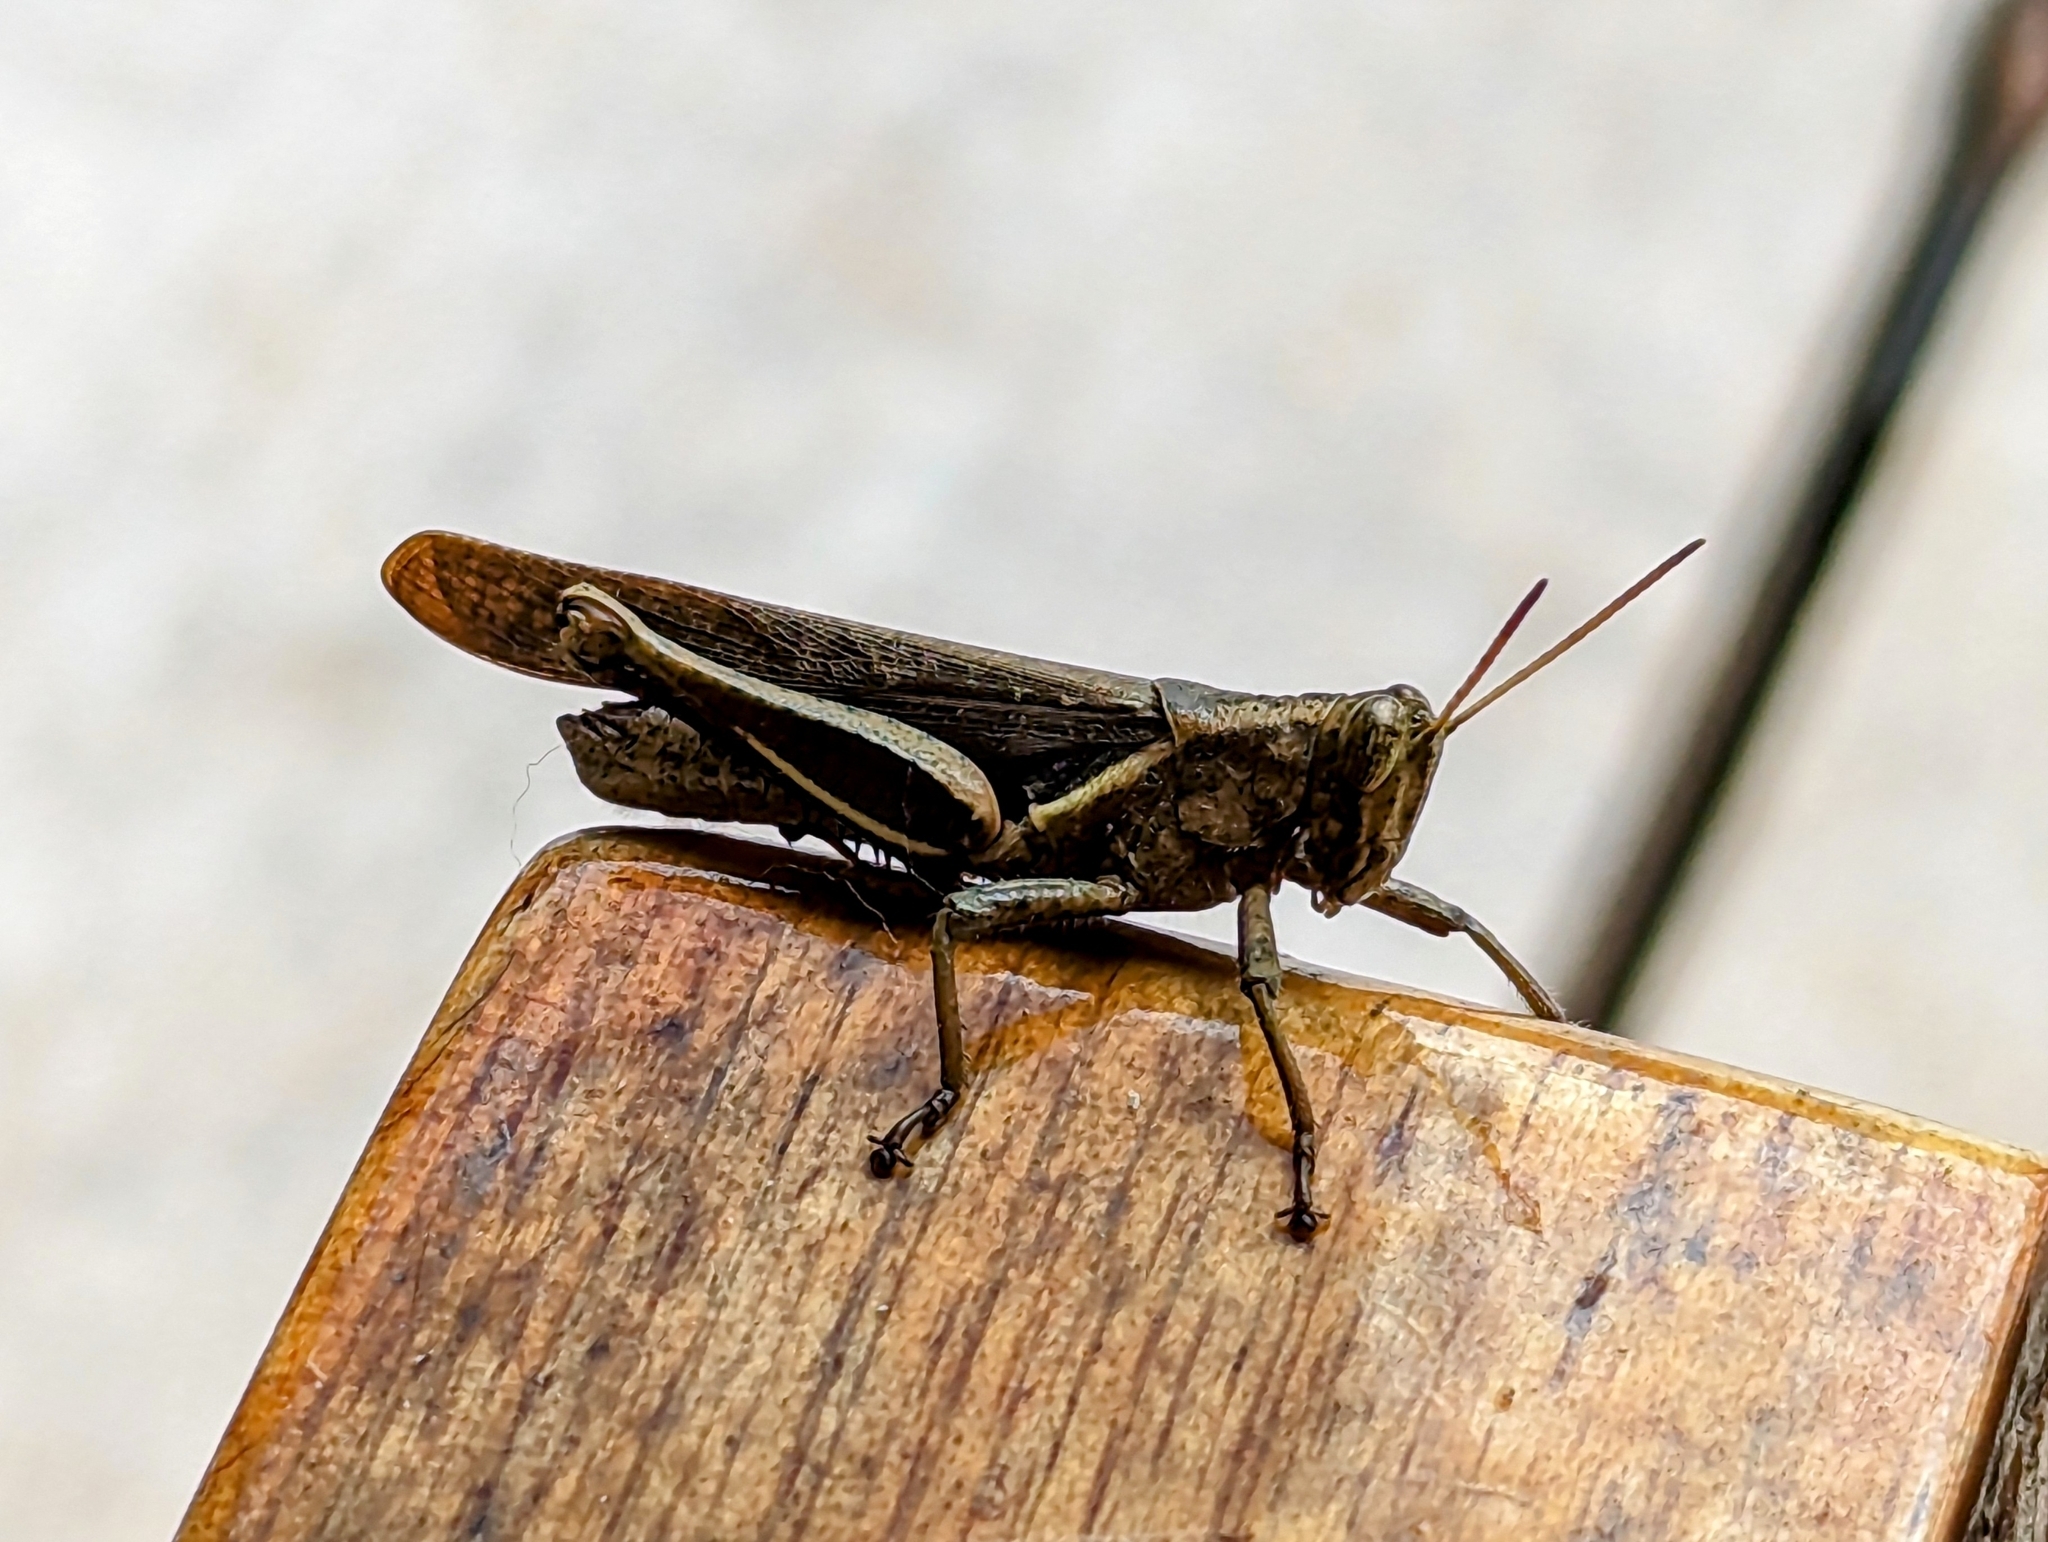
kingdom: Animalia
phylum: Arthropoda
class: Insecta
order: Orthoptera
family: Acrididae
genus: Abracris
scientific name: Abracris flavolineata
